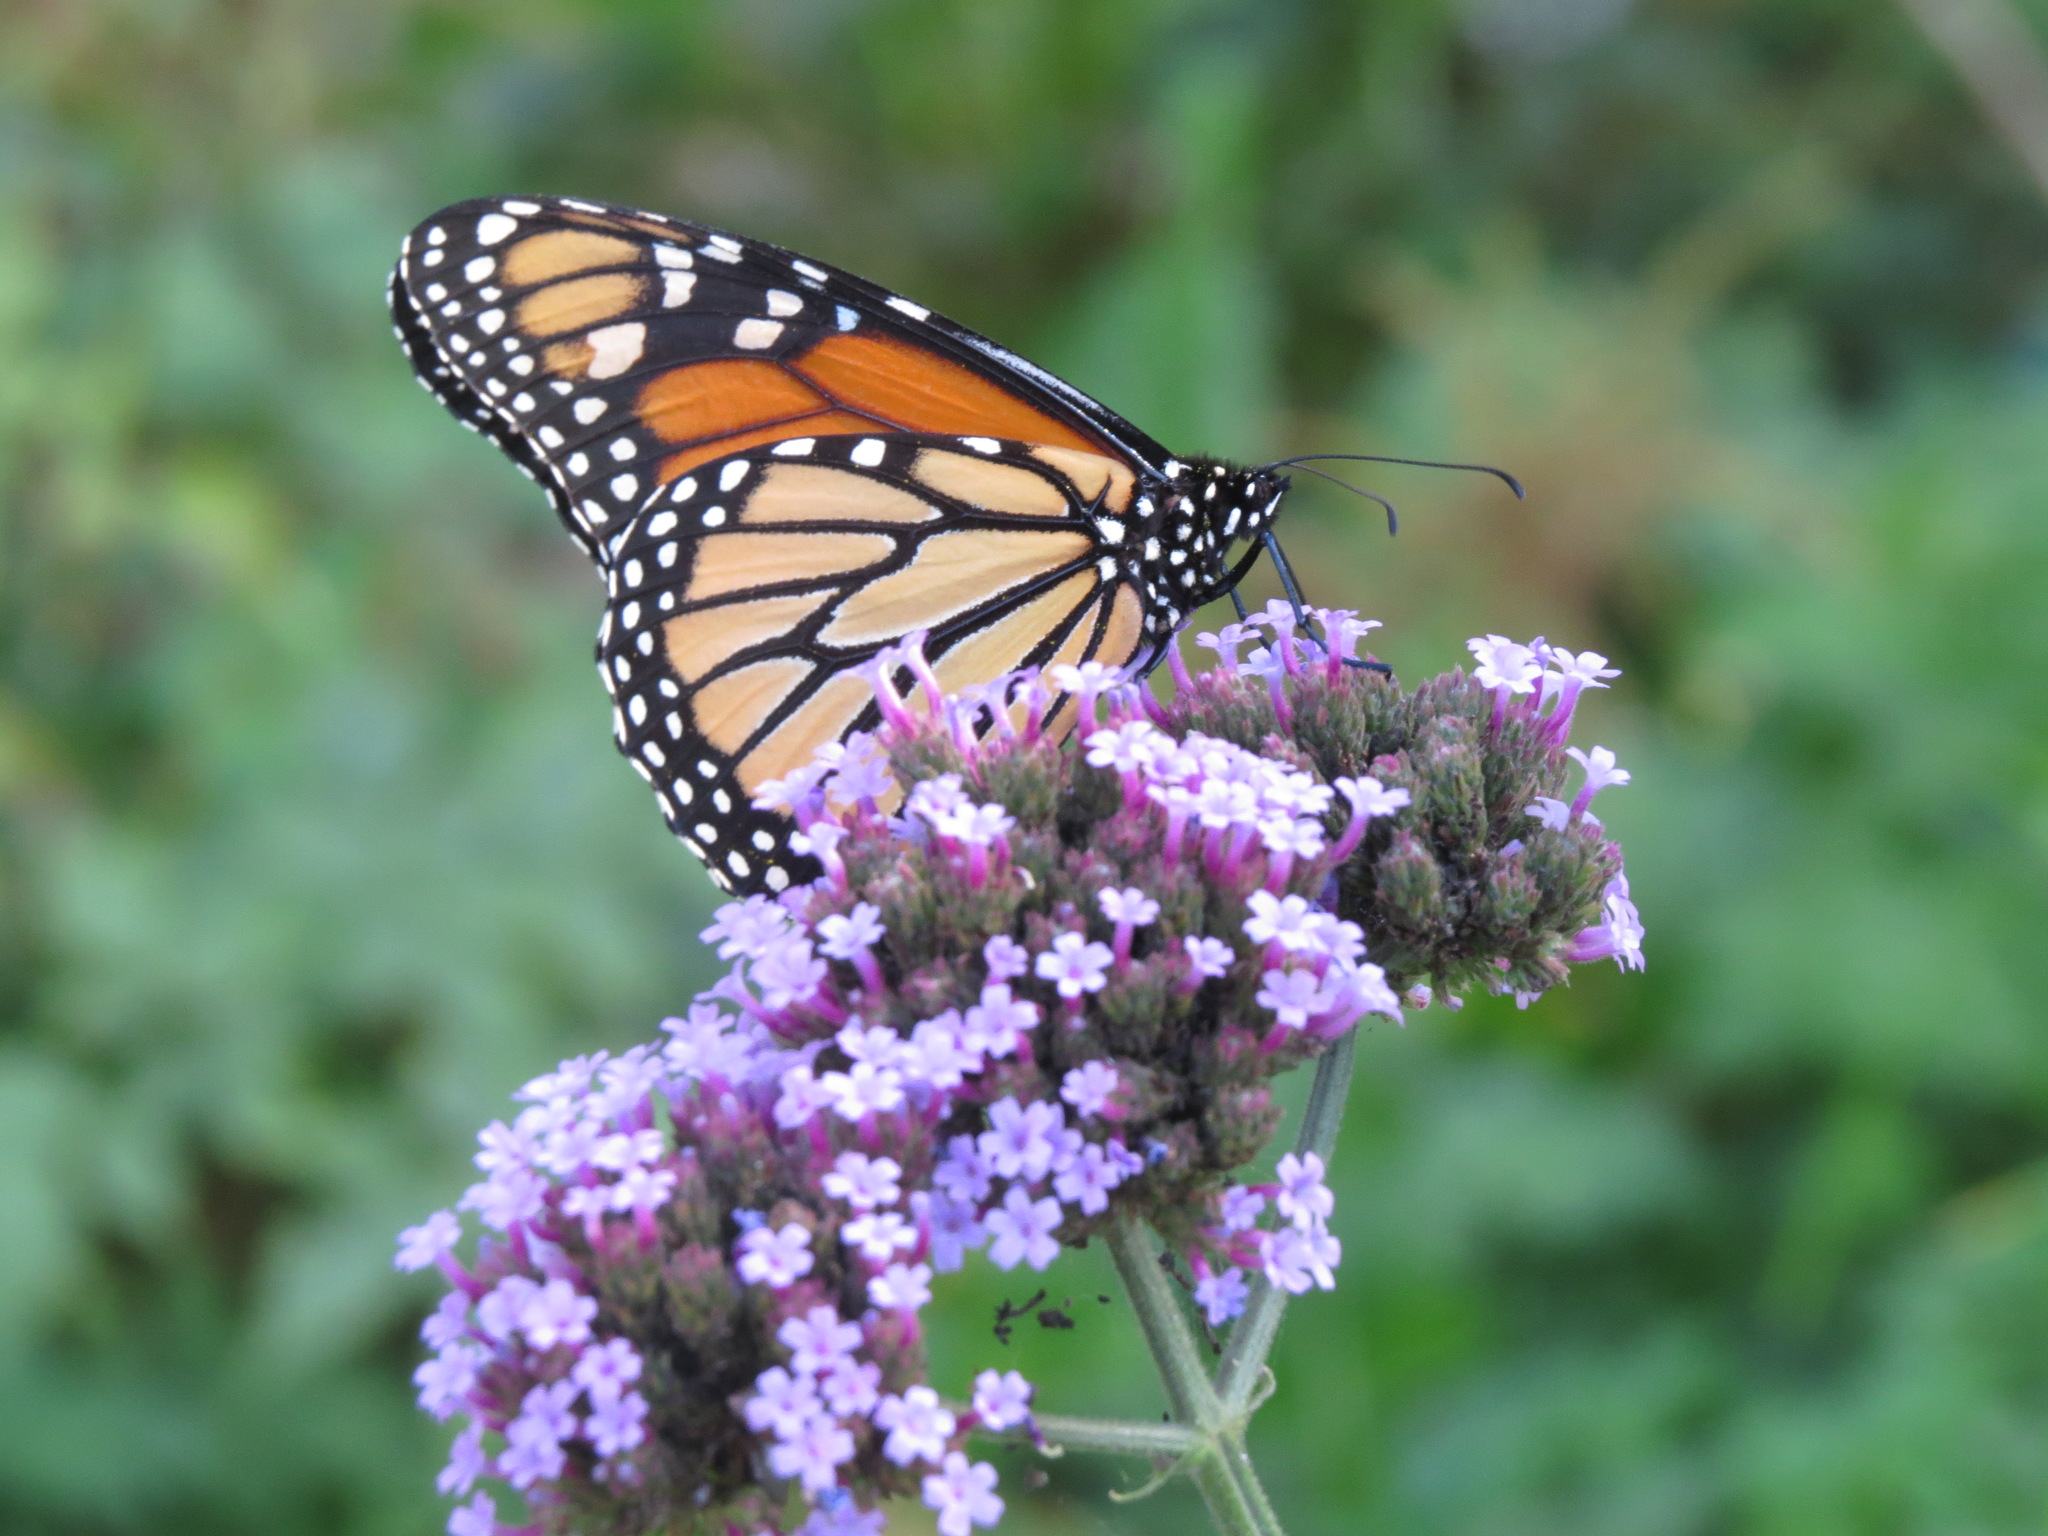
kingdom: Animalia
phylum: Arthropoda
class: Insecta
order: Lepidoptera
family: Nymphalidae
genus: Danaus
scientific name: Danaus plexippus
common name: Monarch
